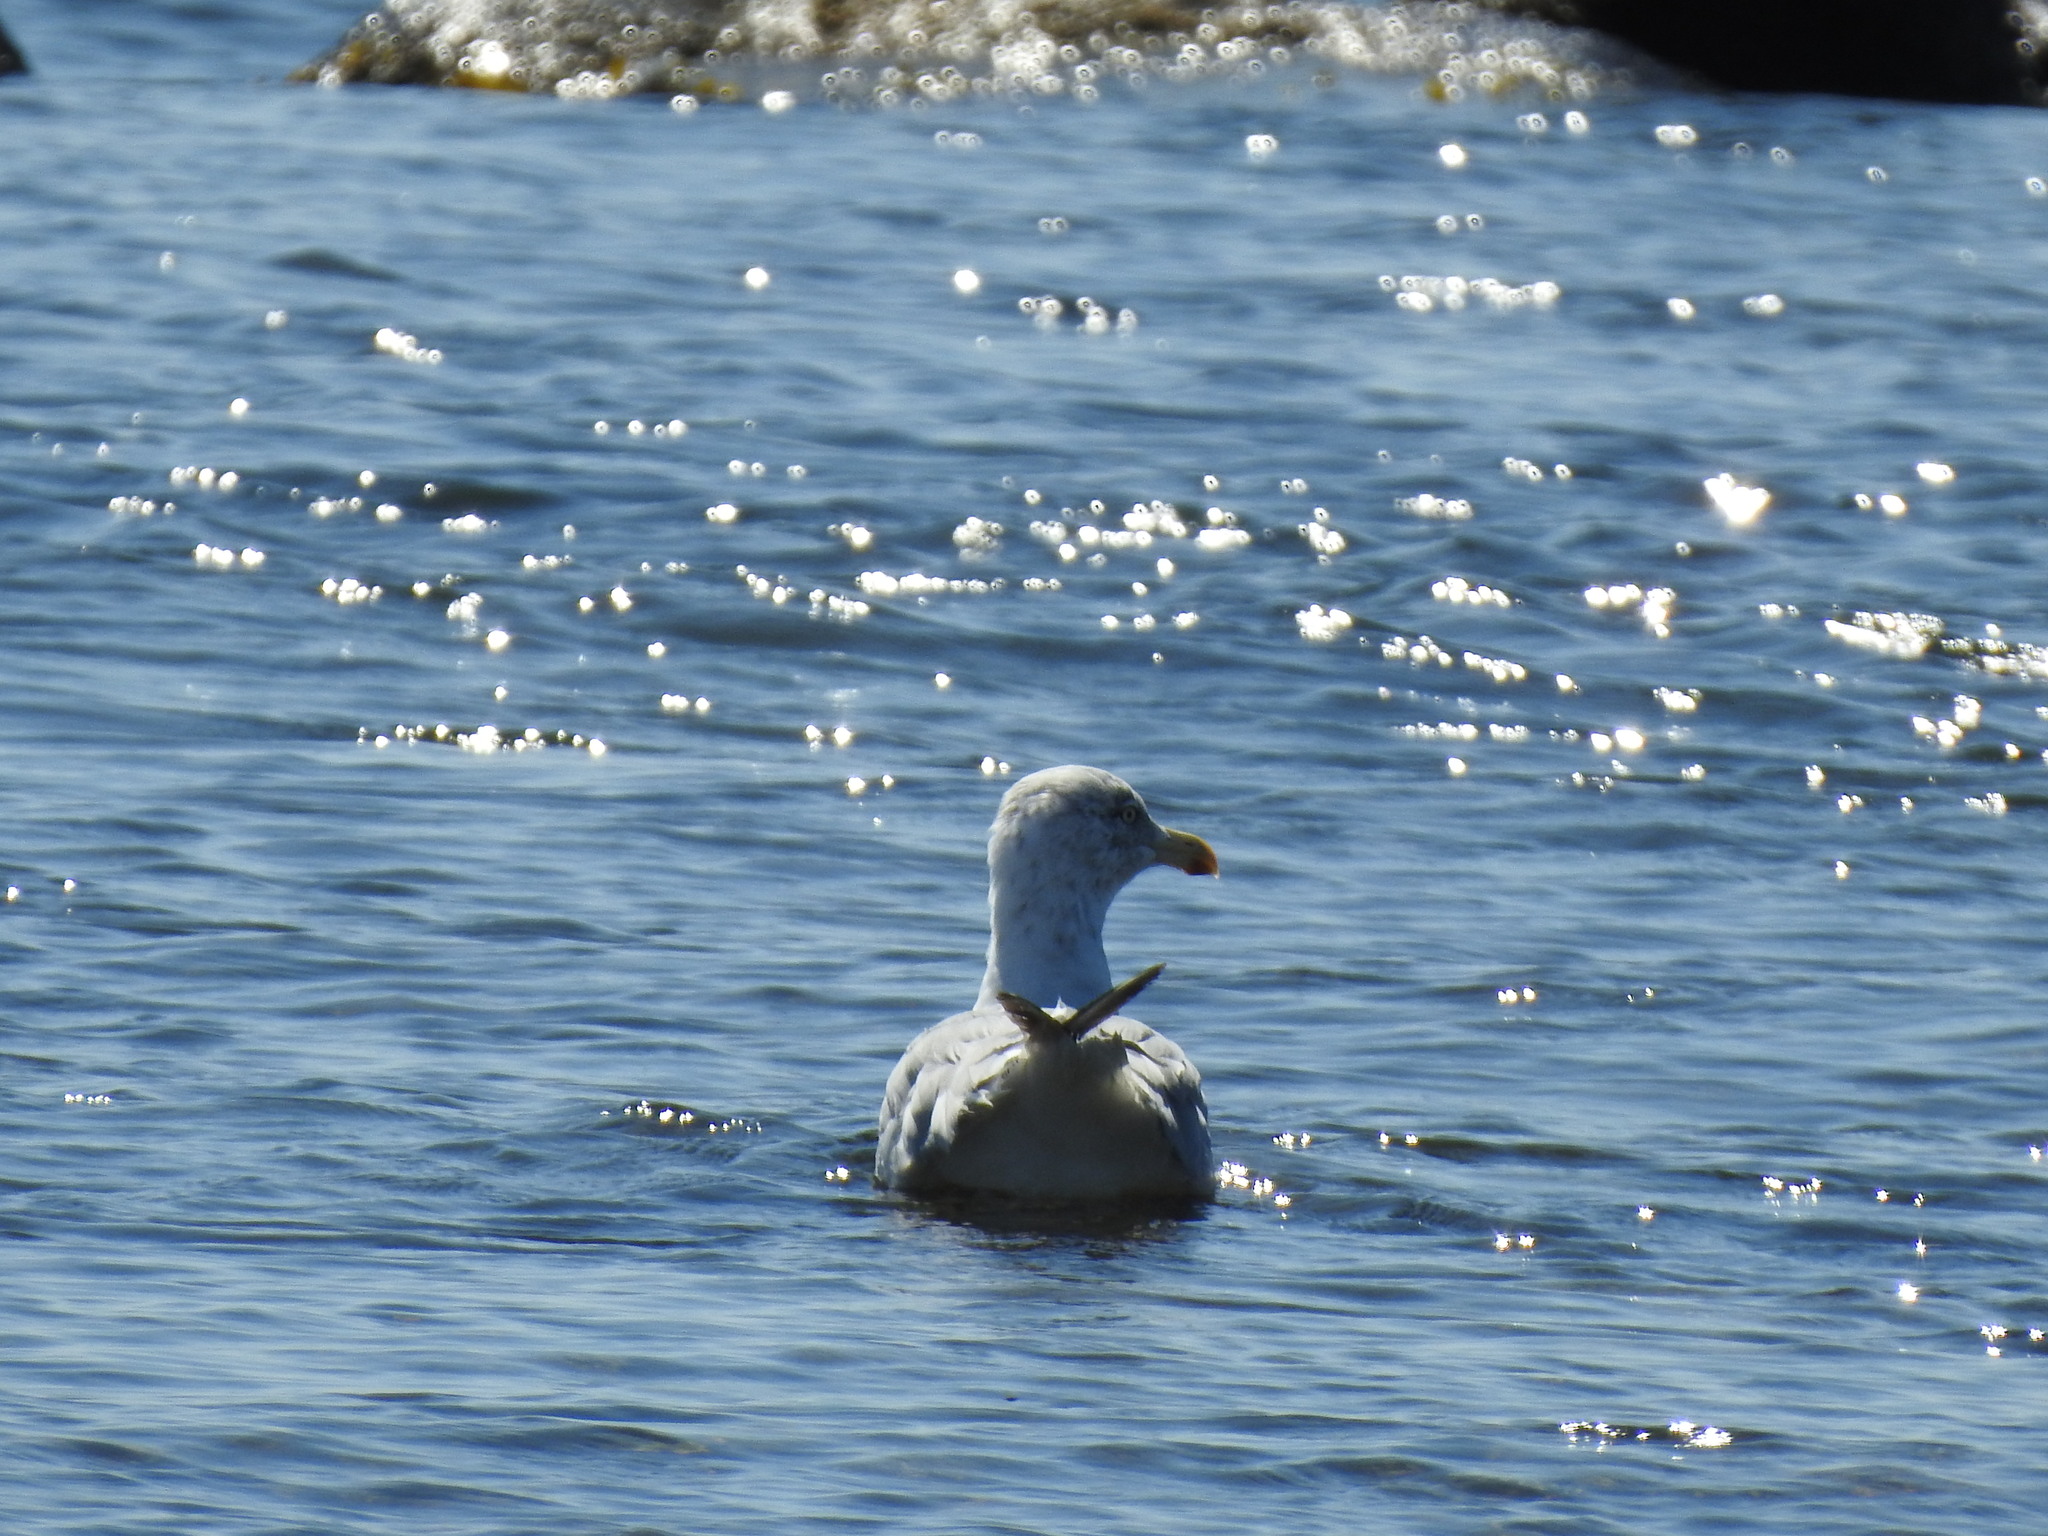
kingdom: Animalia
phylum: Chordata
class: Aves
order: Charadriiformes
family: Laridae
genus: Larus
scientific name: Larus argentatus
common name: Herring gull
